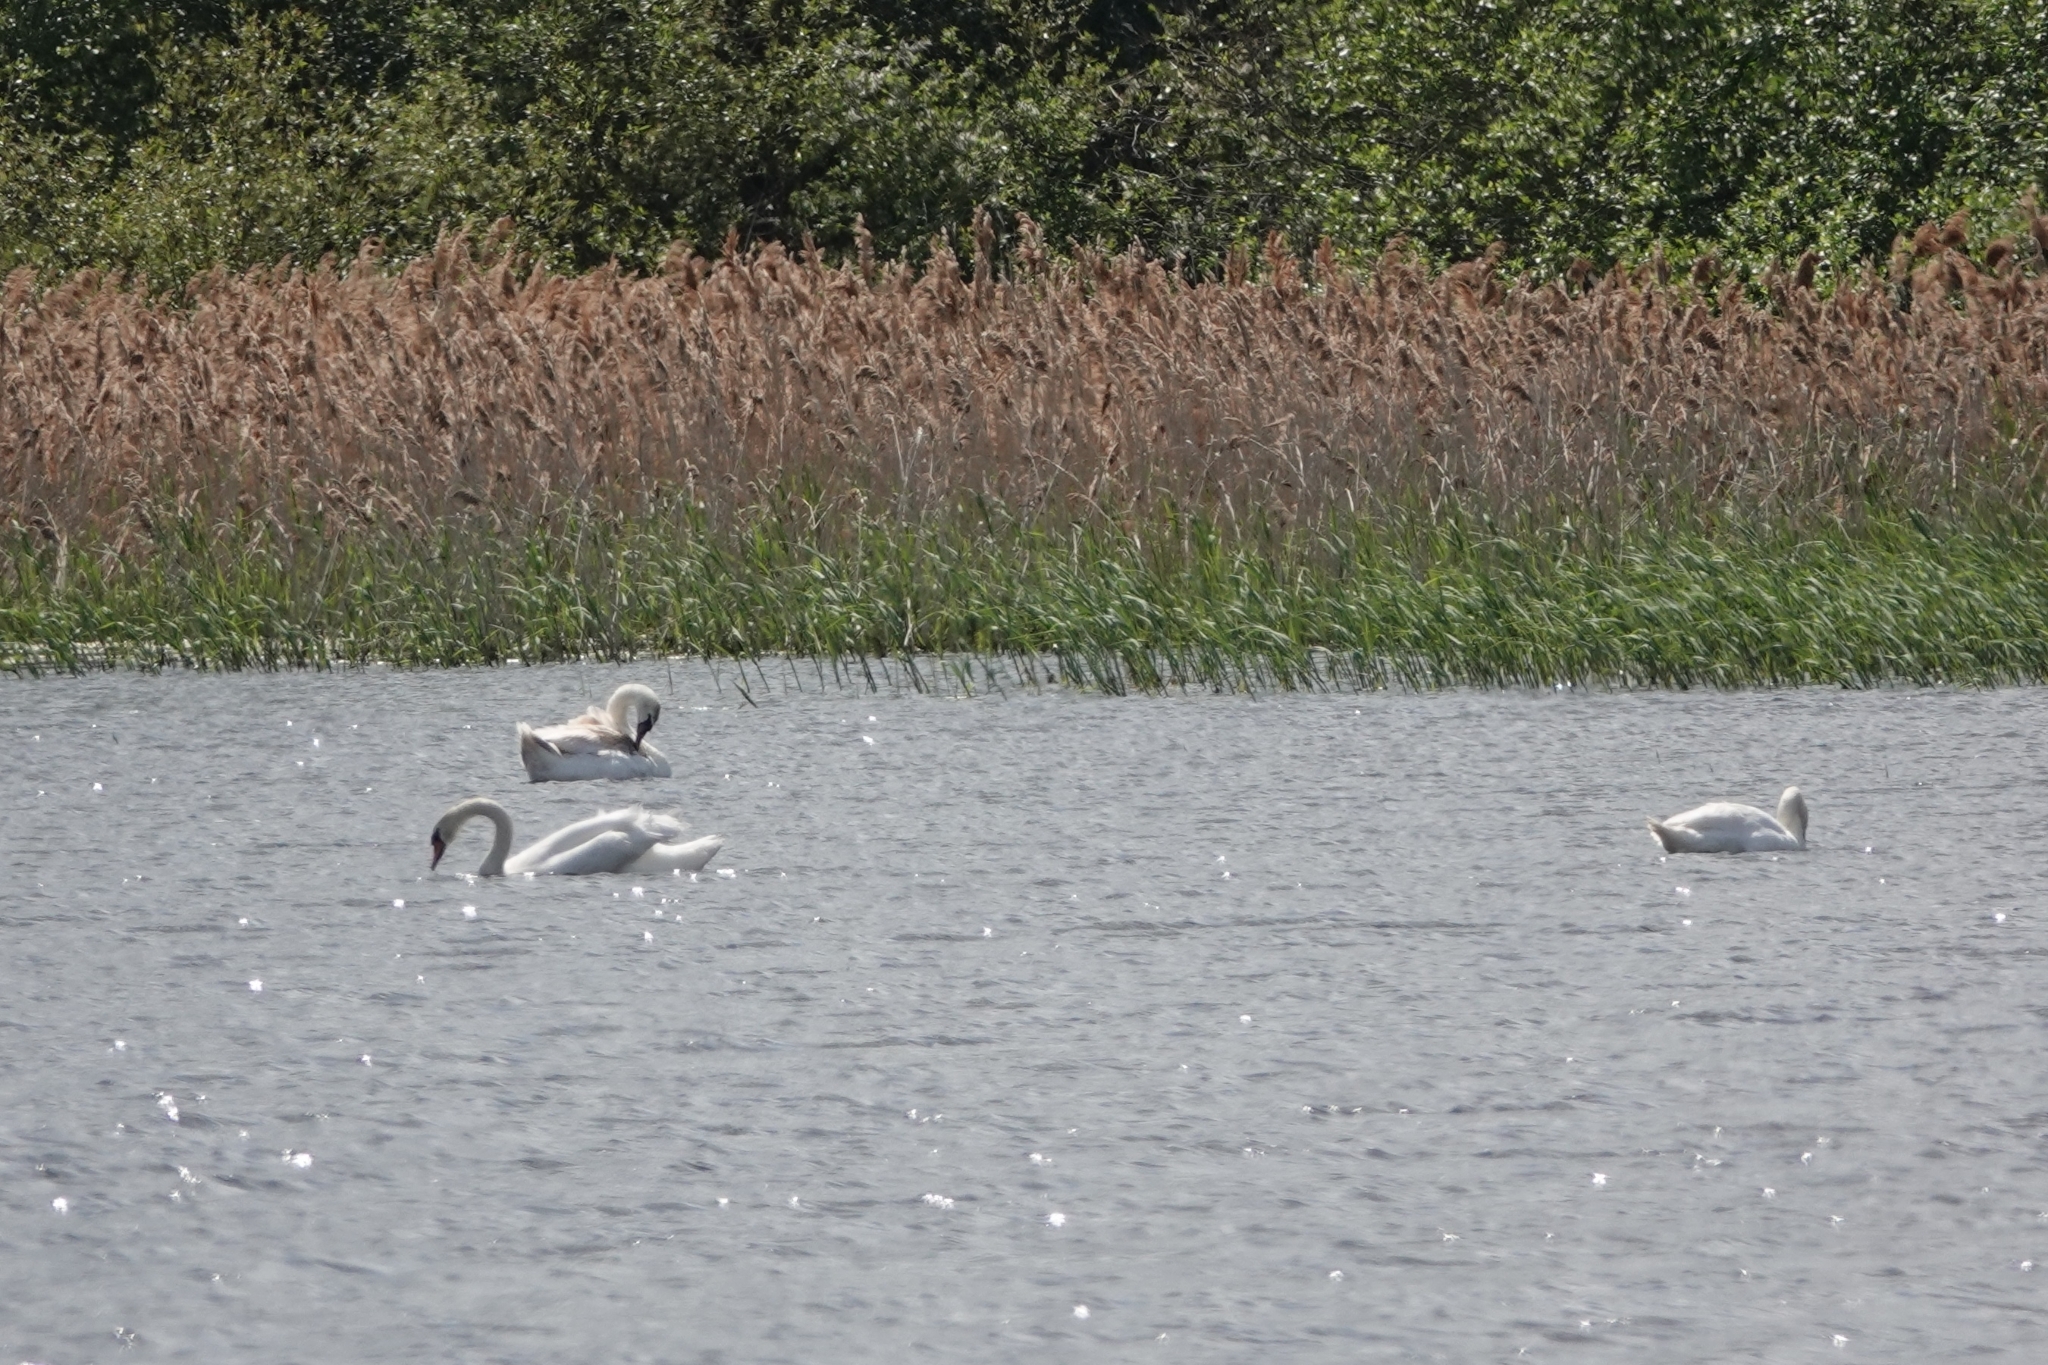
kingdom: Animalia
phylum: Chordata
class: Aves
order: Anseriformes
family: Anatidae
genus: Cygnus
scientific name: Cygnus olor
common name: Mute swan
